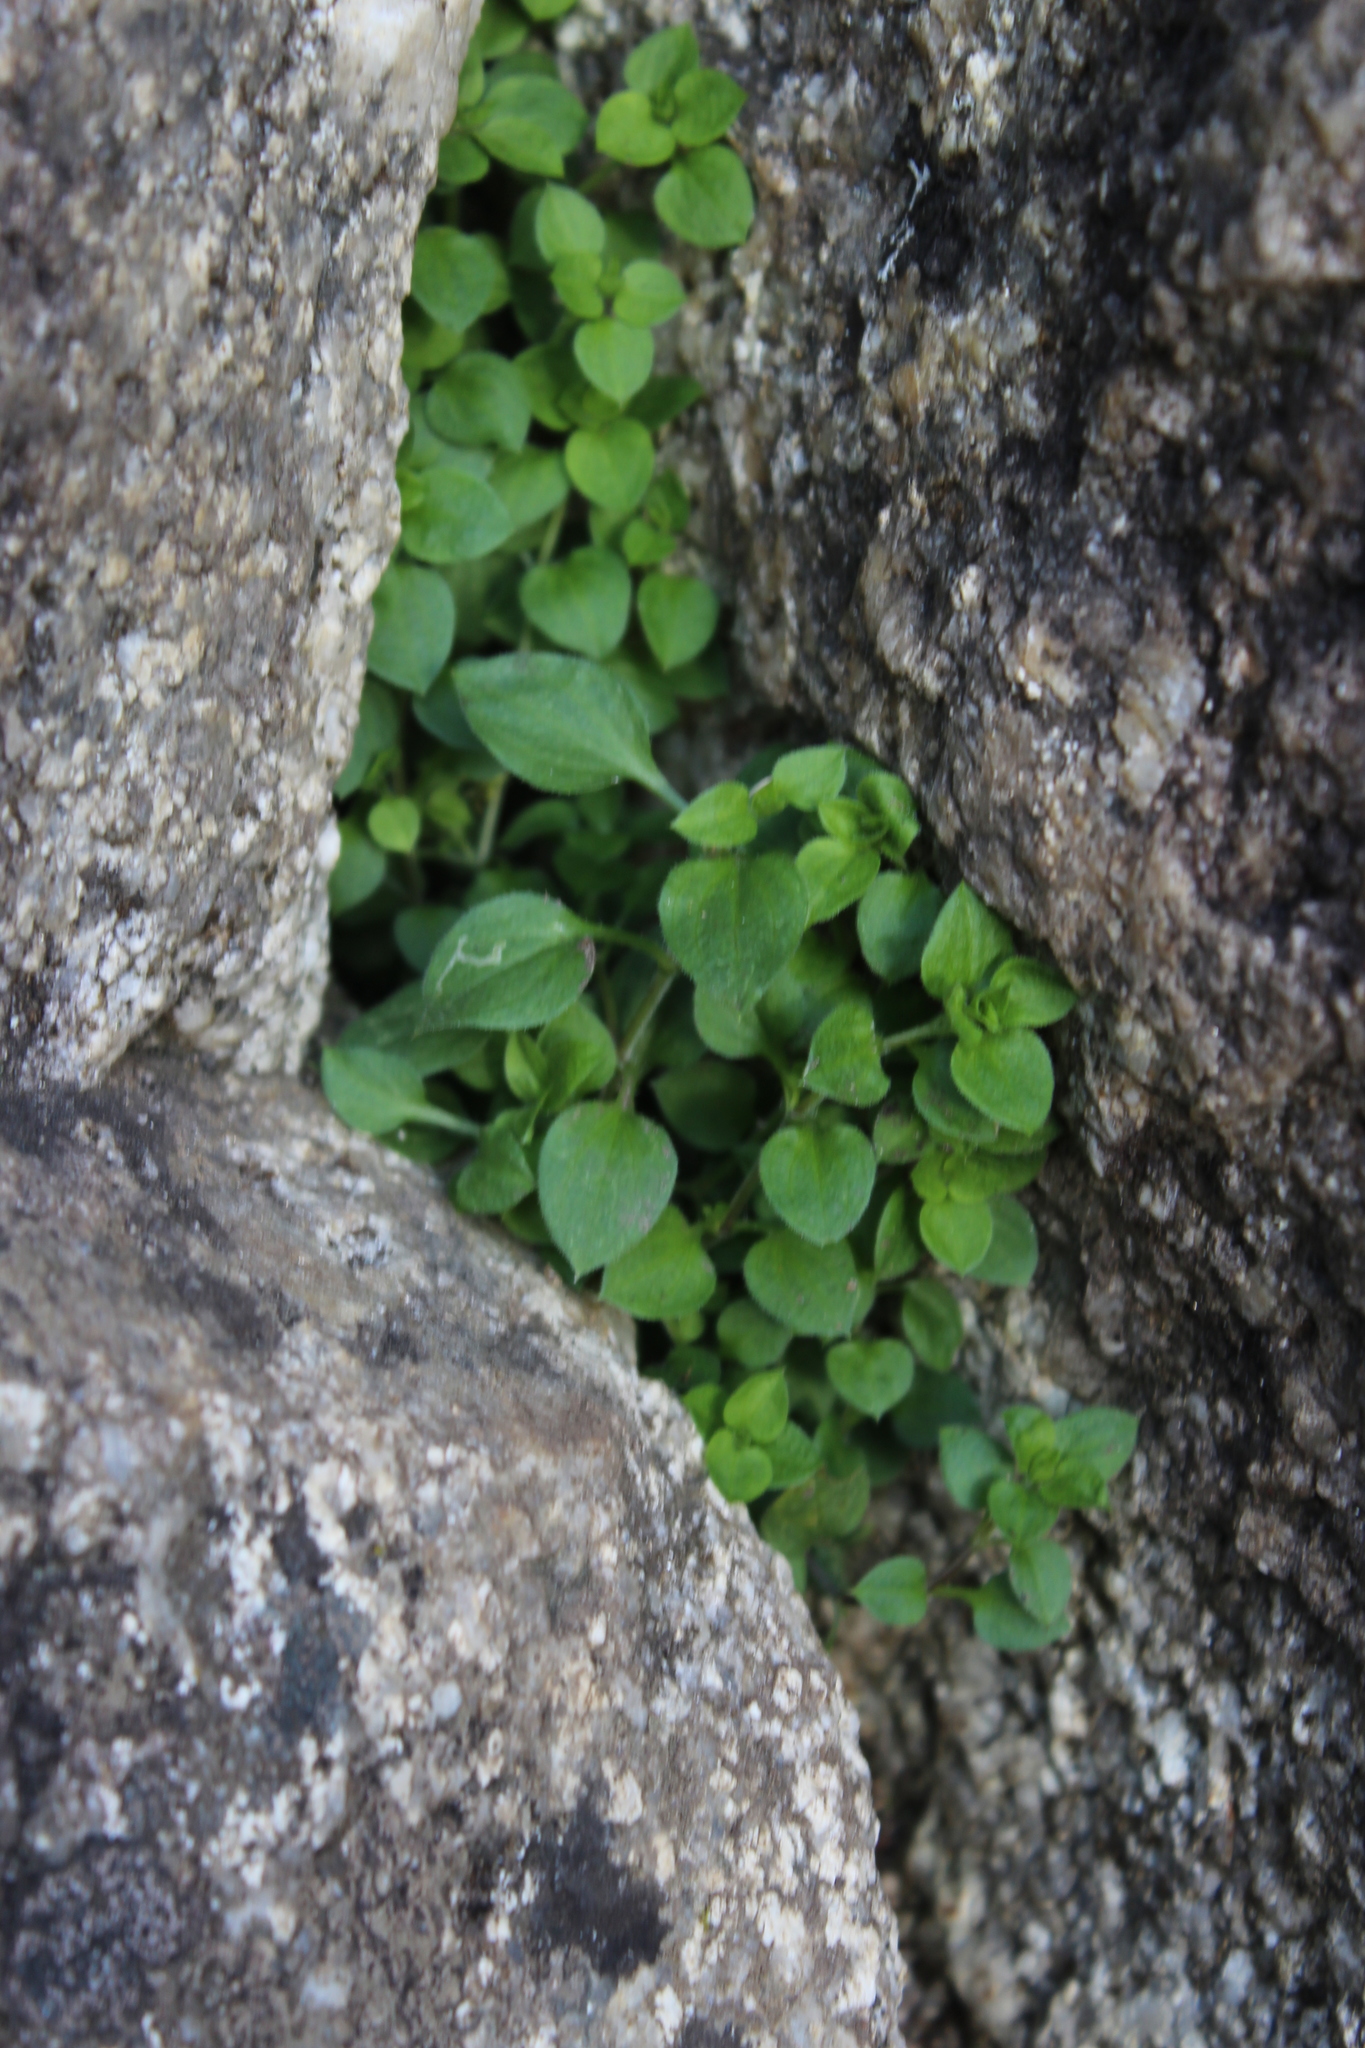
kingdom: Plantae
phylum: Tracheophyta
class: Magnoliopsida
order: Caryophyllales
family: Caryophyllaceae
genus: Moehringia
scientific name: Moehringia trinervia
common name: Three-nerved sandwort
